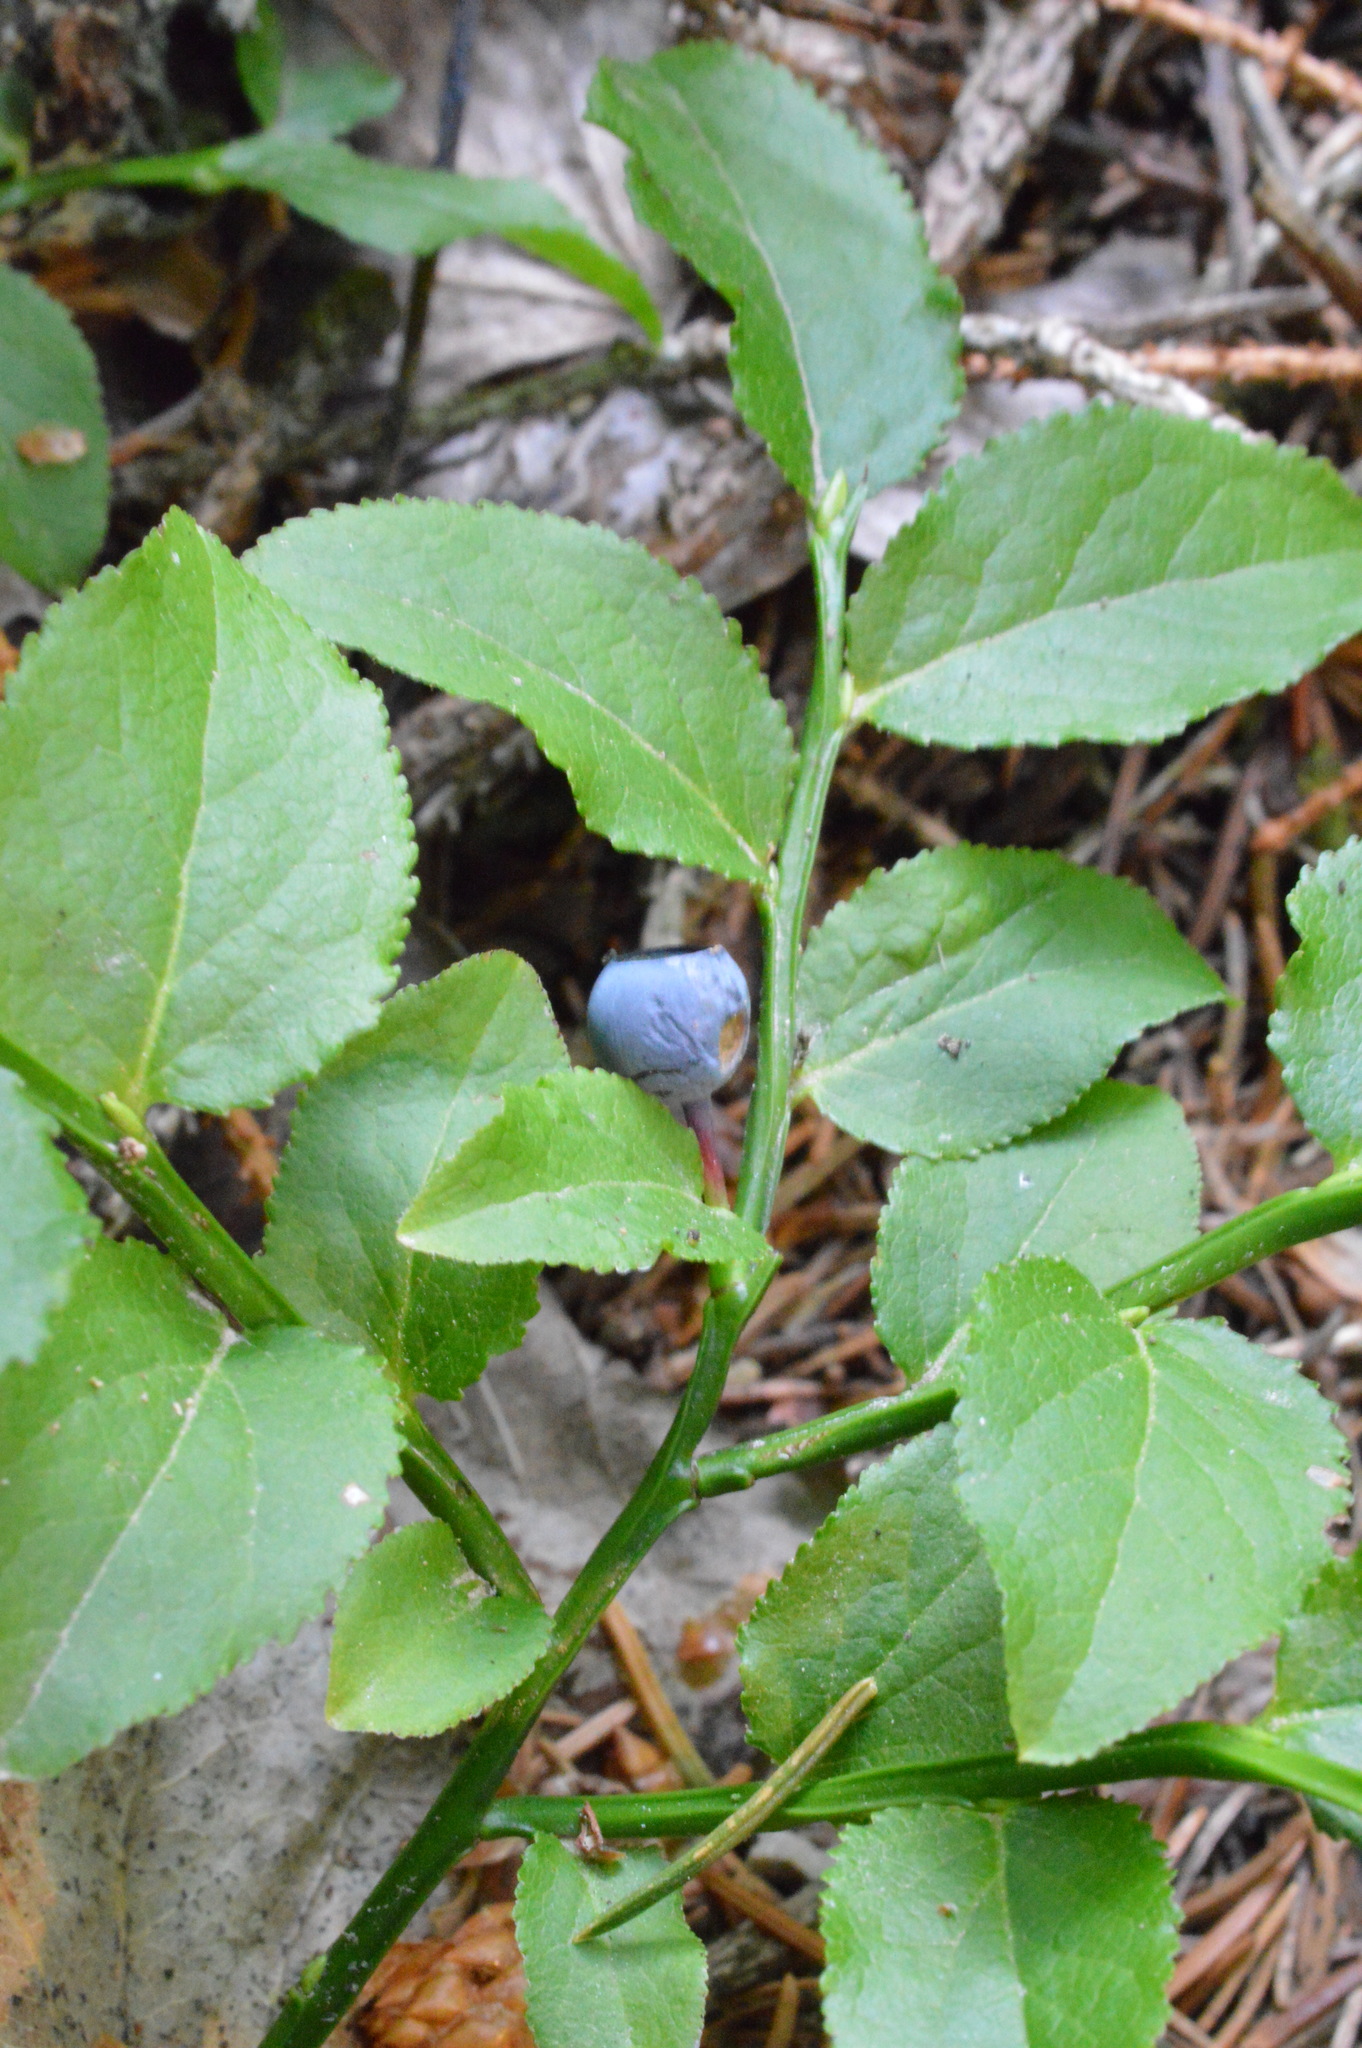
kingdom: Plantae
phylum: Tracheophyta
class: Magnoliopsida
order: Ericales
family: Ericaceae
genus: Vaccinium
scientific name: Vaccinium myrtillus
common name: Bilberry
